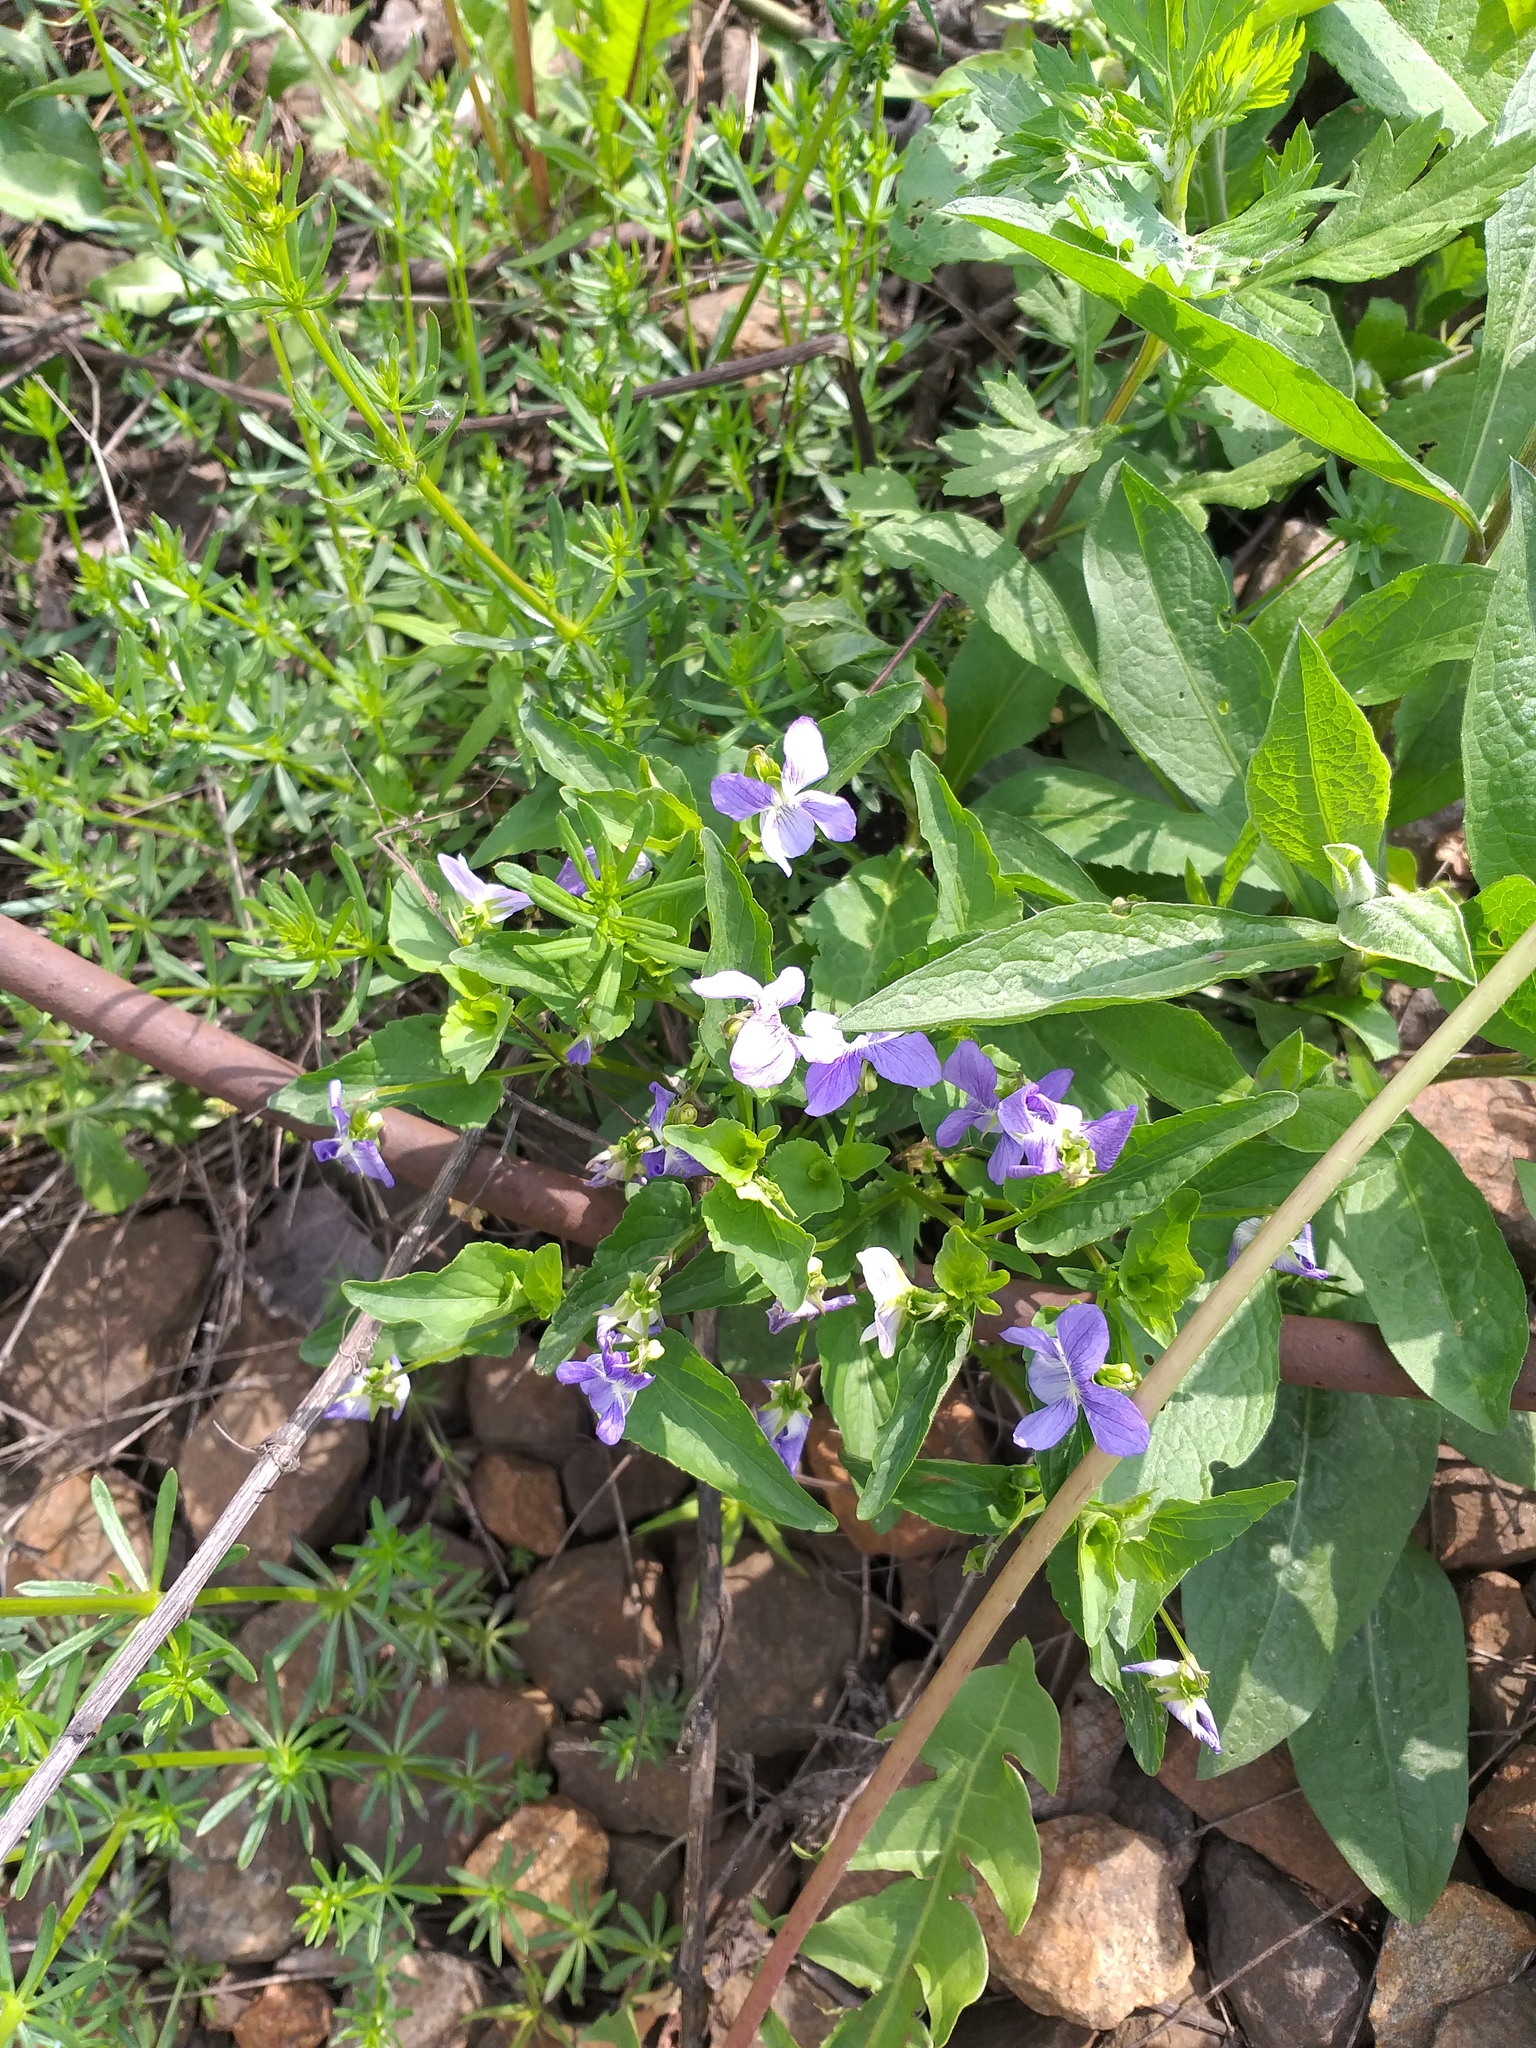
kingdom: Plantae
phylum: Tracheophyta
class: Magnoliopsida
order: Malpighiales
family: Violaceae
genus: Viola
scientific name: Viola canina
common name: Heath dog-violet
